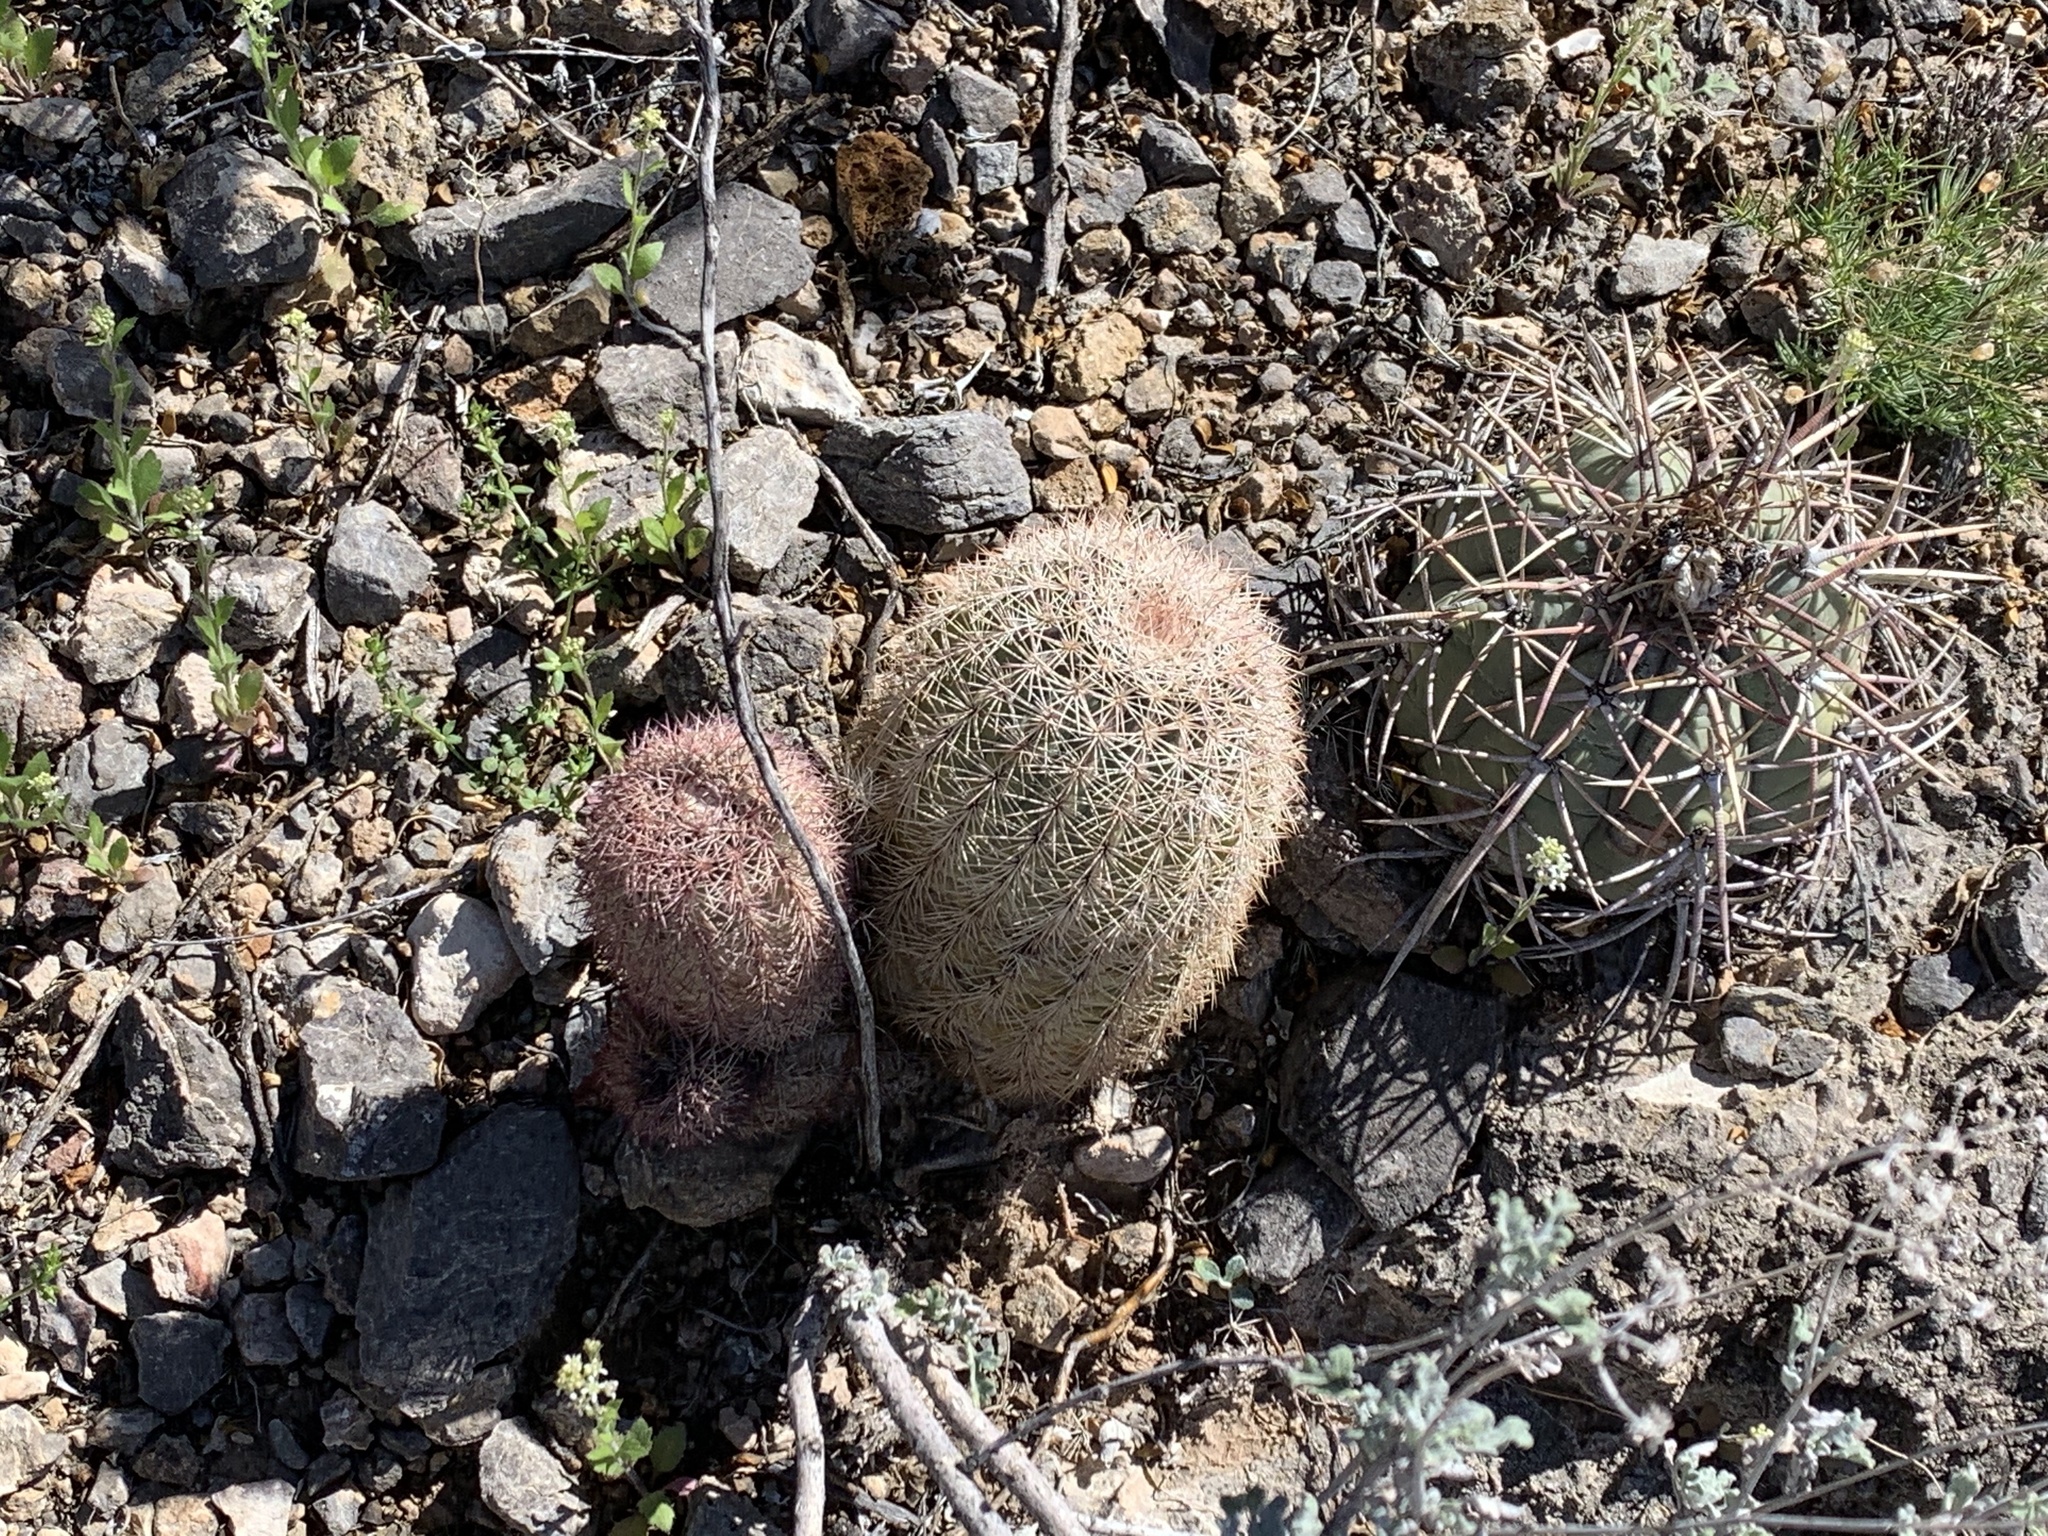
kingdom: Plantae
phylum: Tracheophyta
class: Magnoliopsida
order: Caryophyllales
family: Cactaceae
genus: Echinocereus
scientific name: Echinocereus dasyacanthus
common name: Spiny hedgehog cactus
